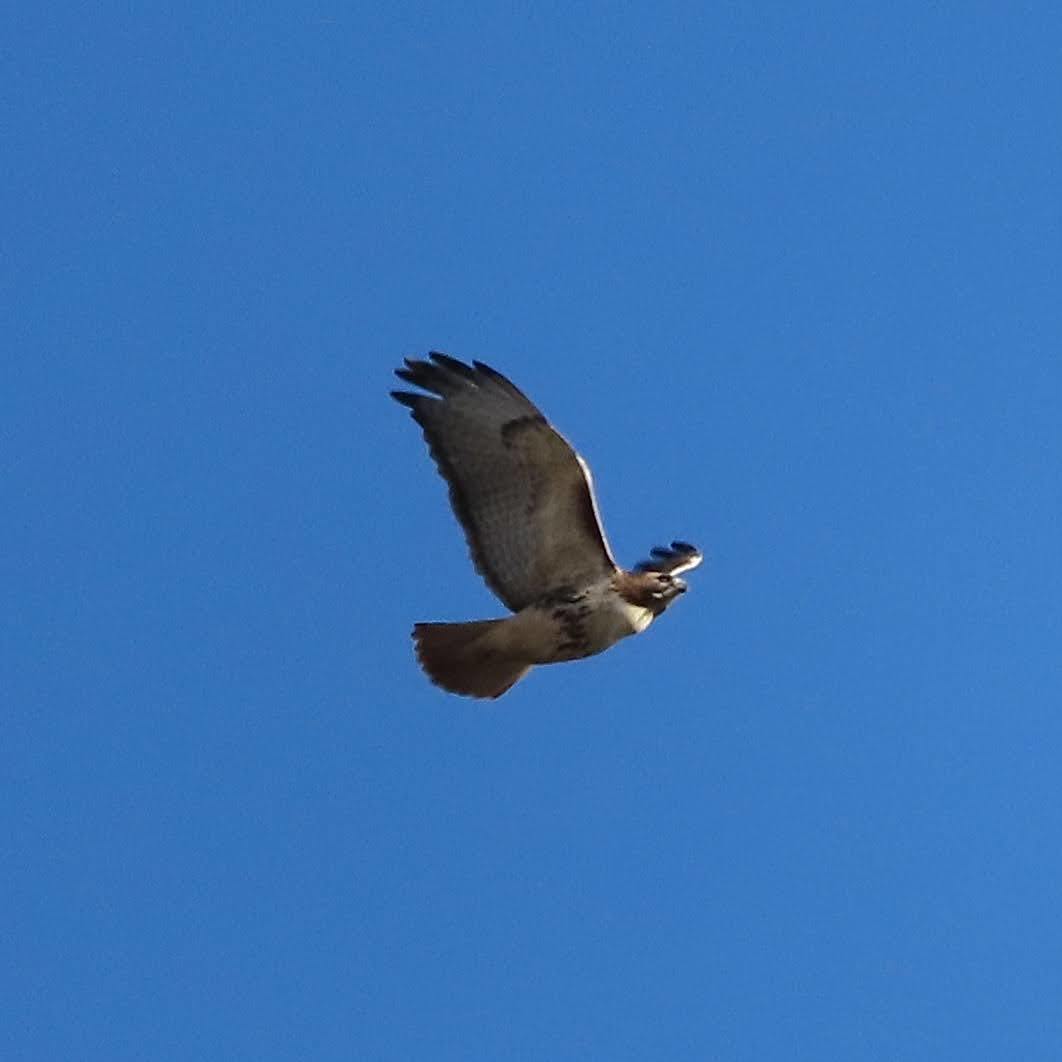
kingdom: Animalia
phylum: Chordata
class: Aves
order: Accipitriformes
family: Accipitridae
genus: Buteo
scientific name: Buteo jamaicensis
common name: Red-tailed hawk
